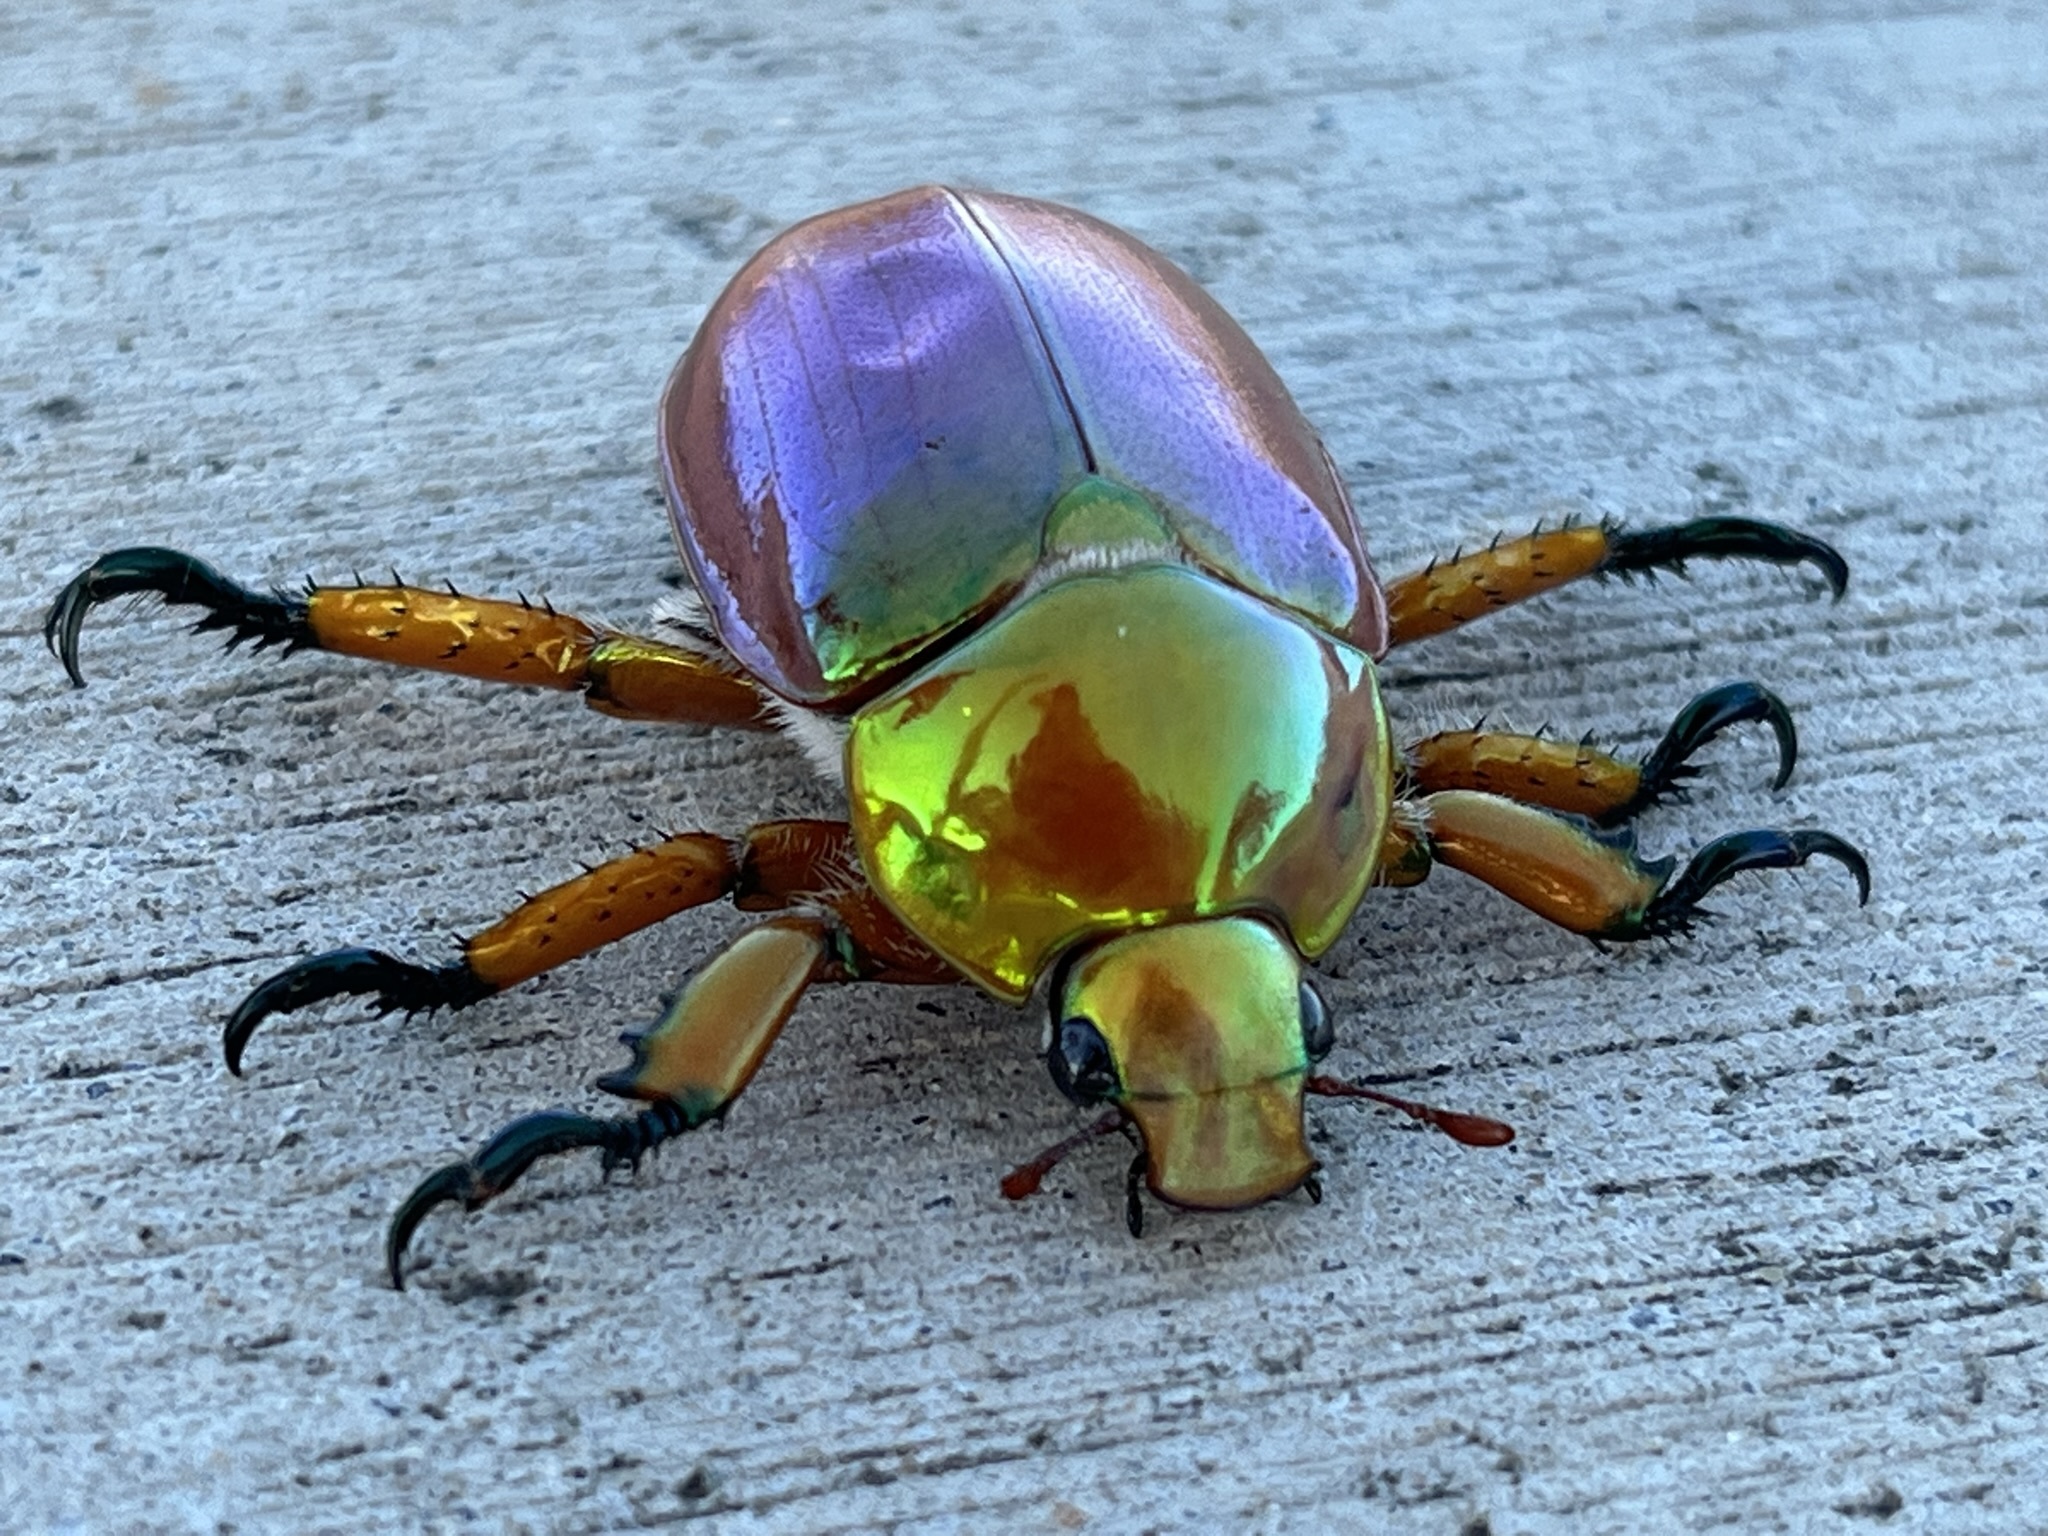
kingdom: Animalia
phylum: Arthropoda
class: Insecta
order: Coleoptera
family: Scarabaeidae
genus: Anoplognathus
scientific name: Anoplognathus viriditarsis
